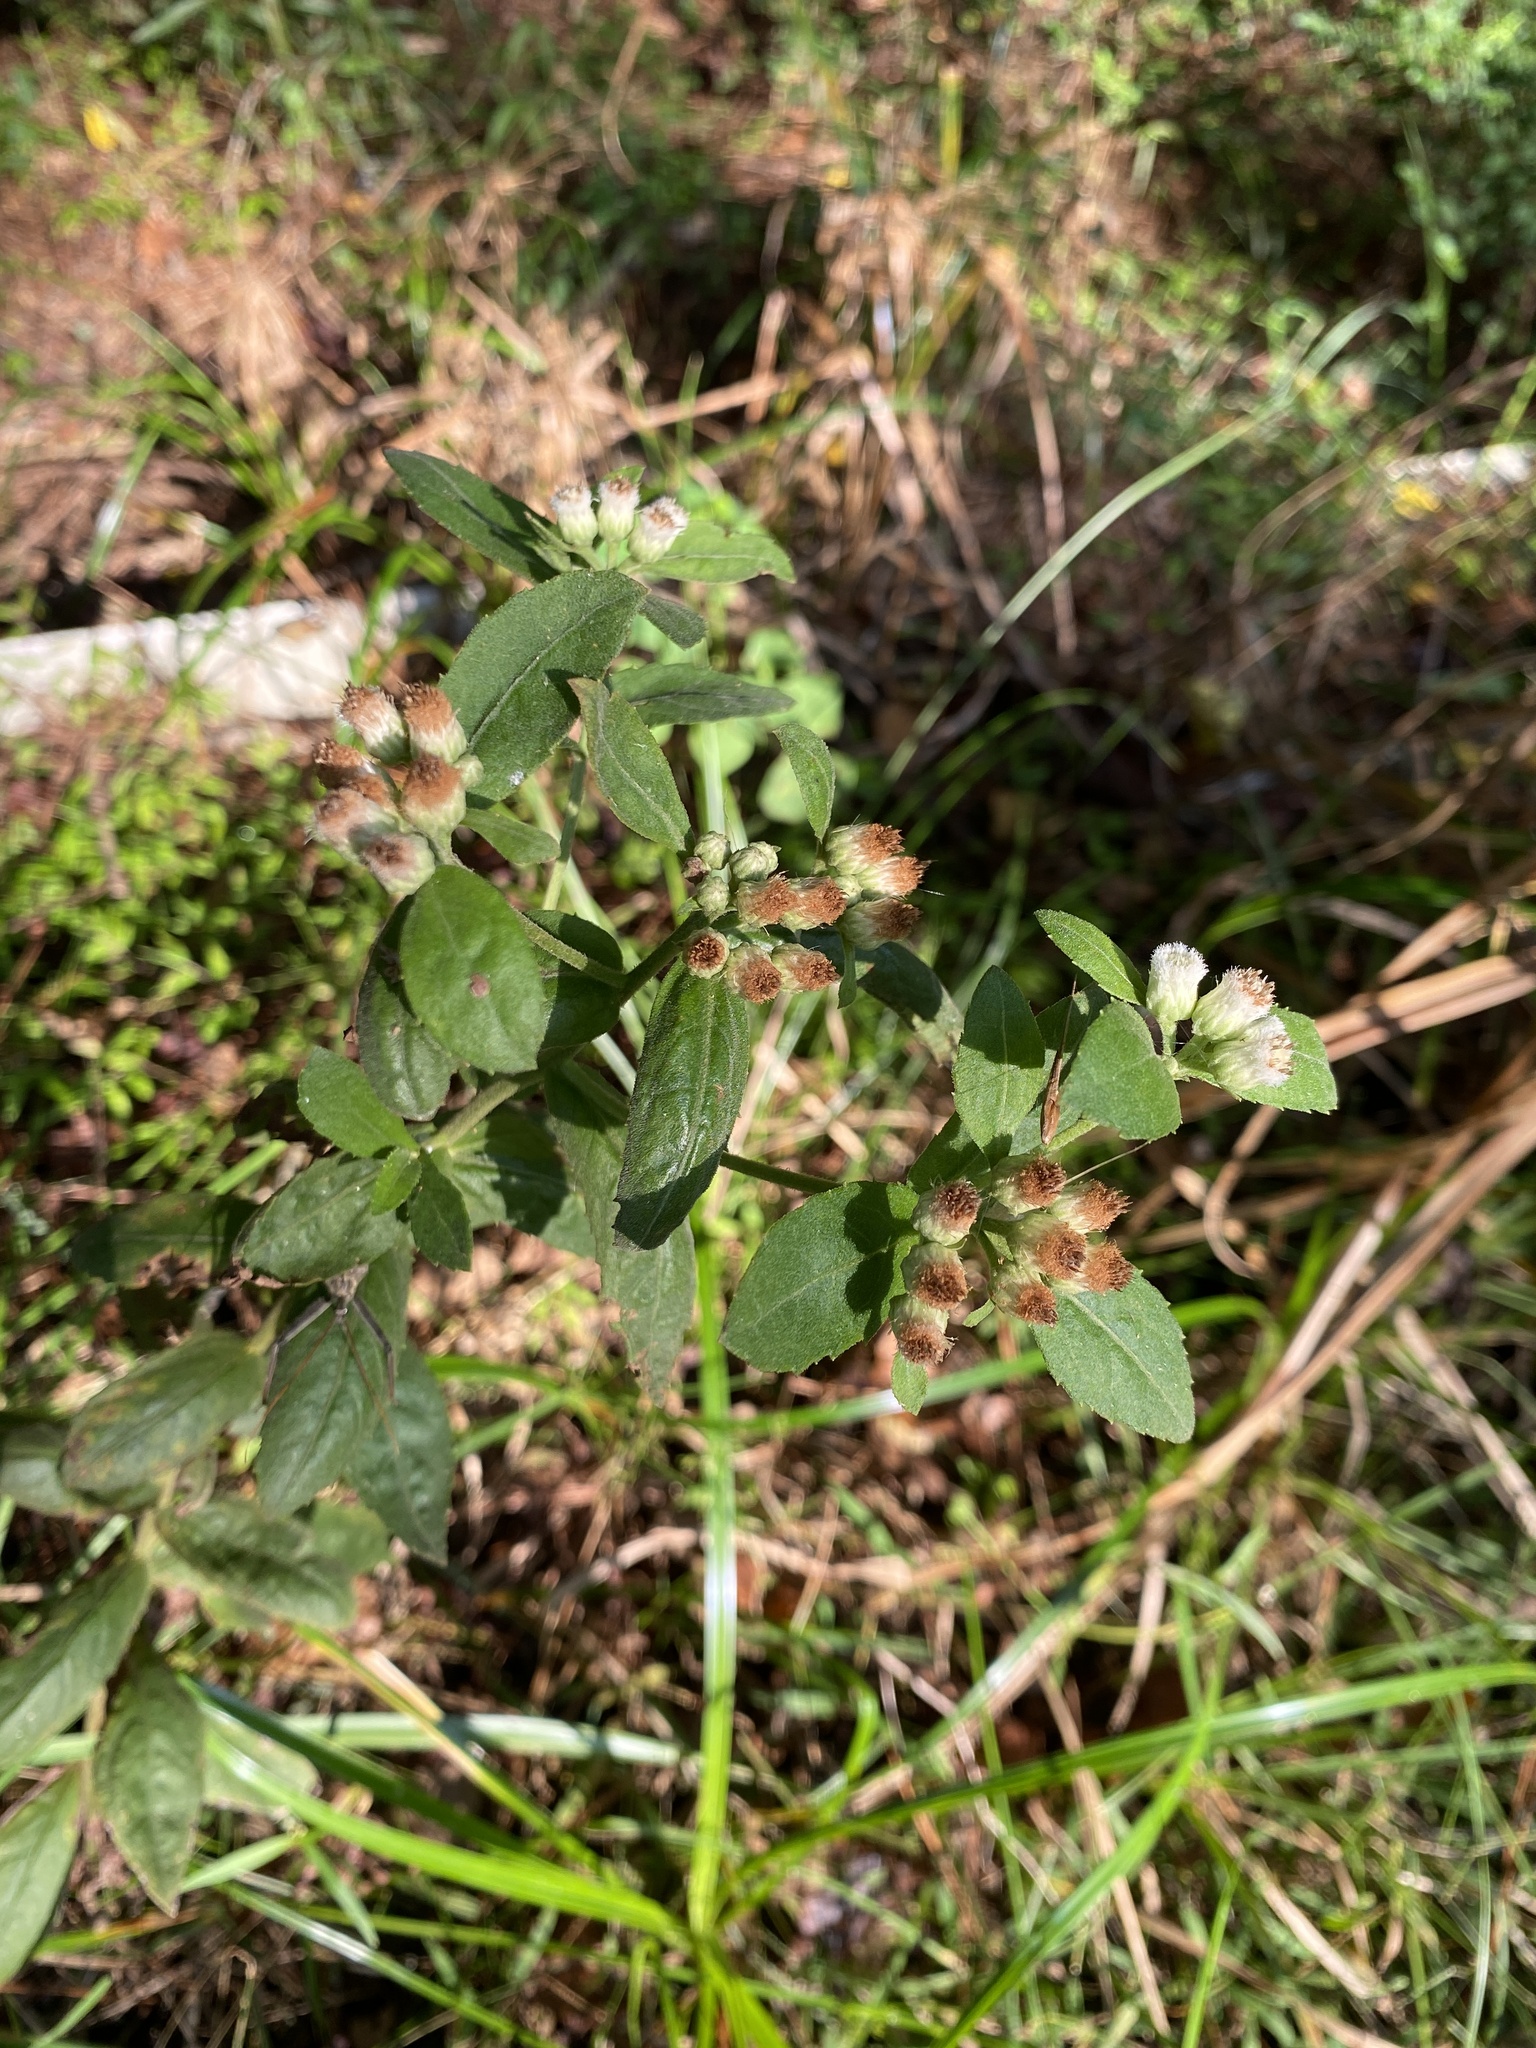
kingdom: Plantae
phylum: Tracheophyta
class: Magnoliopsida
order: Asterales
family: Asteraceae
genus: Pluchea
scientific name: Pluchea foetida
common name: Stinking camphorweed
